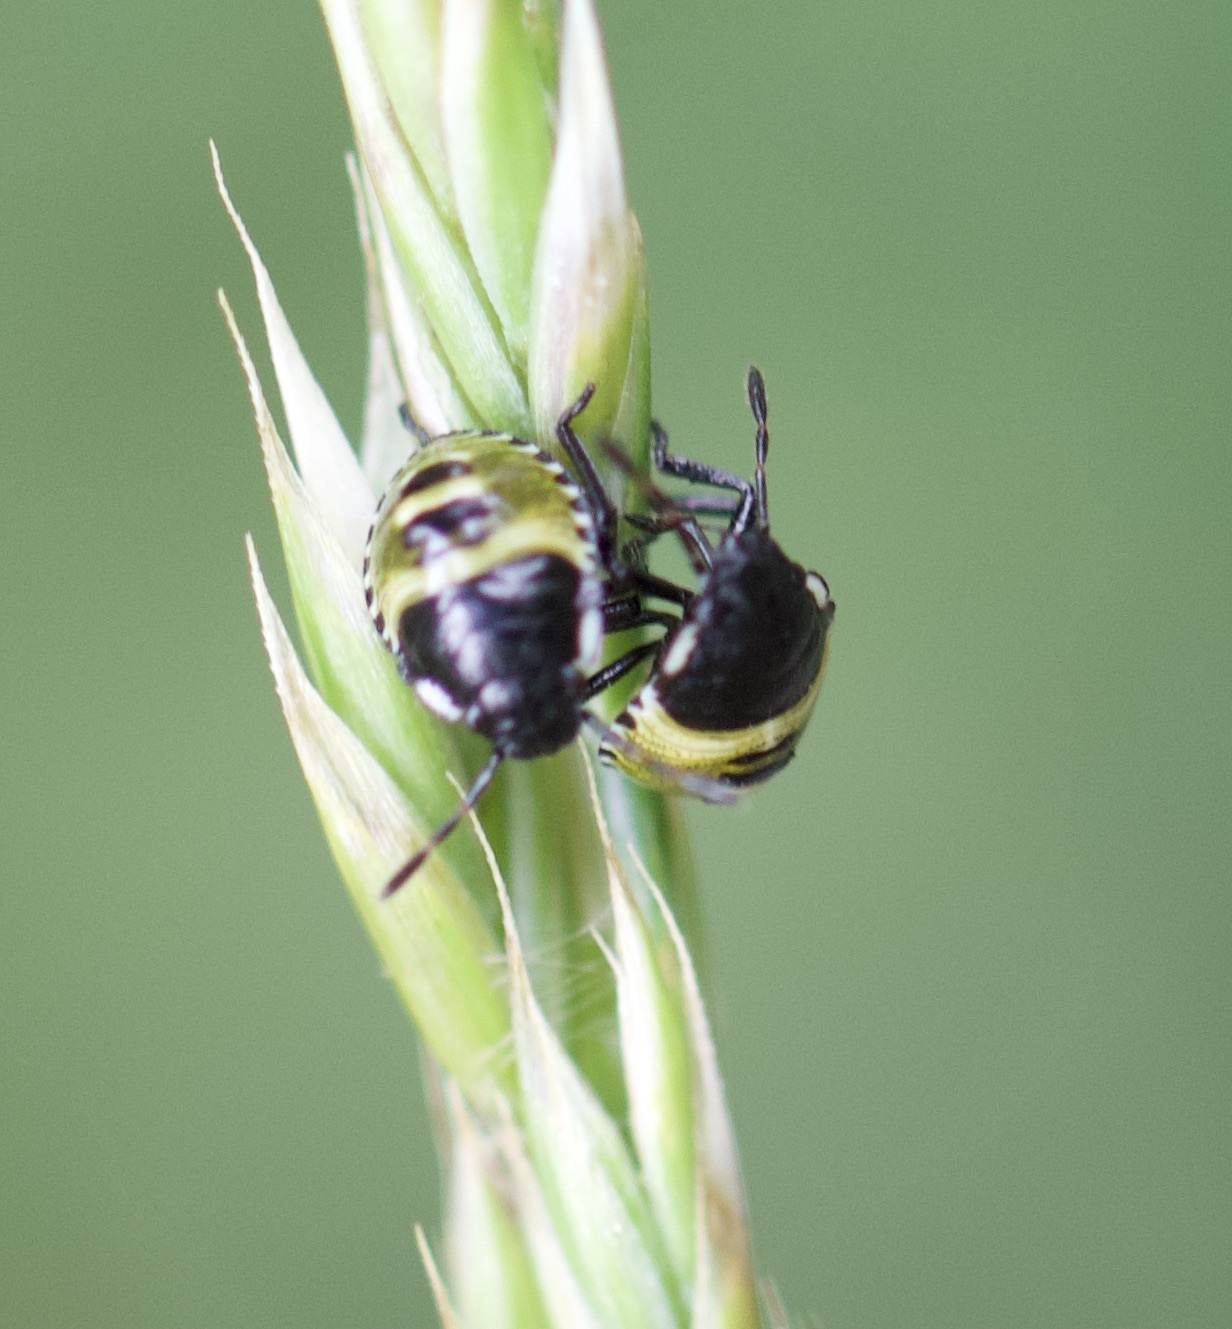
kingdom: Animalia
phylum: Arthropoda
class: Insecta
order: Hemiptera
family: Pentatomidae
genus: Palomena
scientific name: Palomena prasina
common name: Green shieldbug
